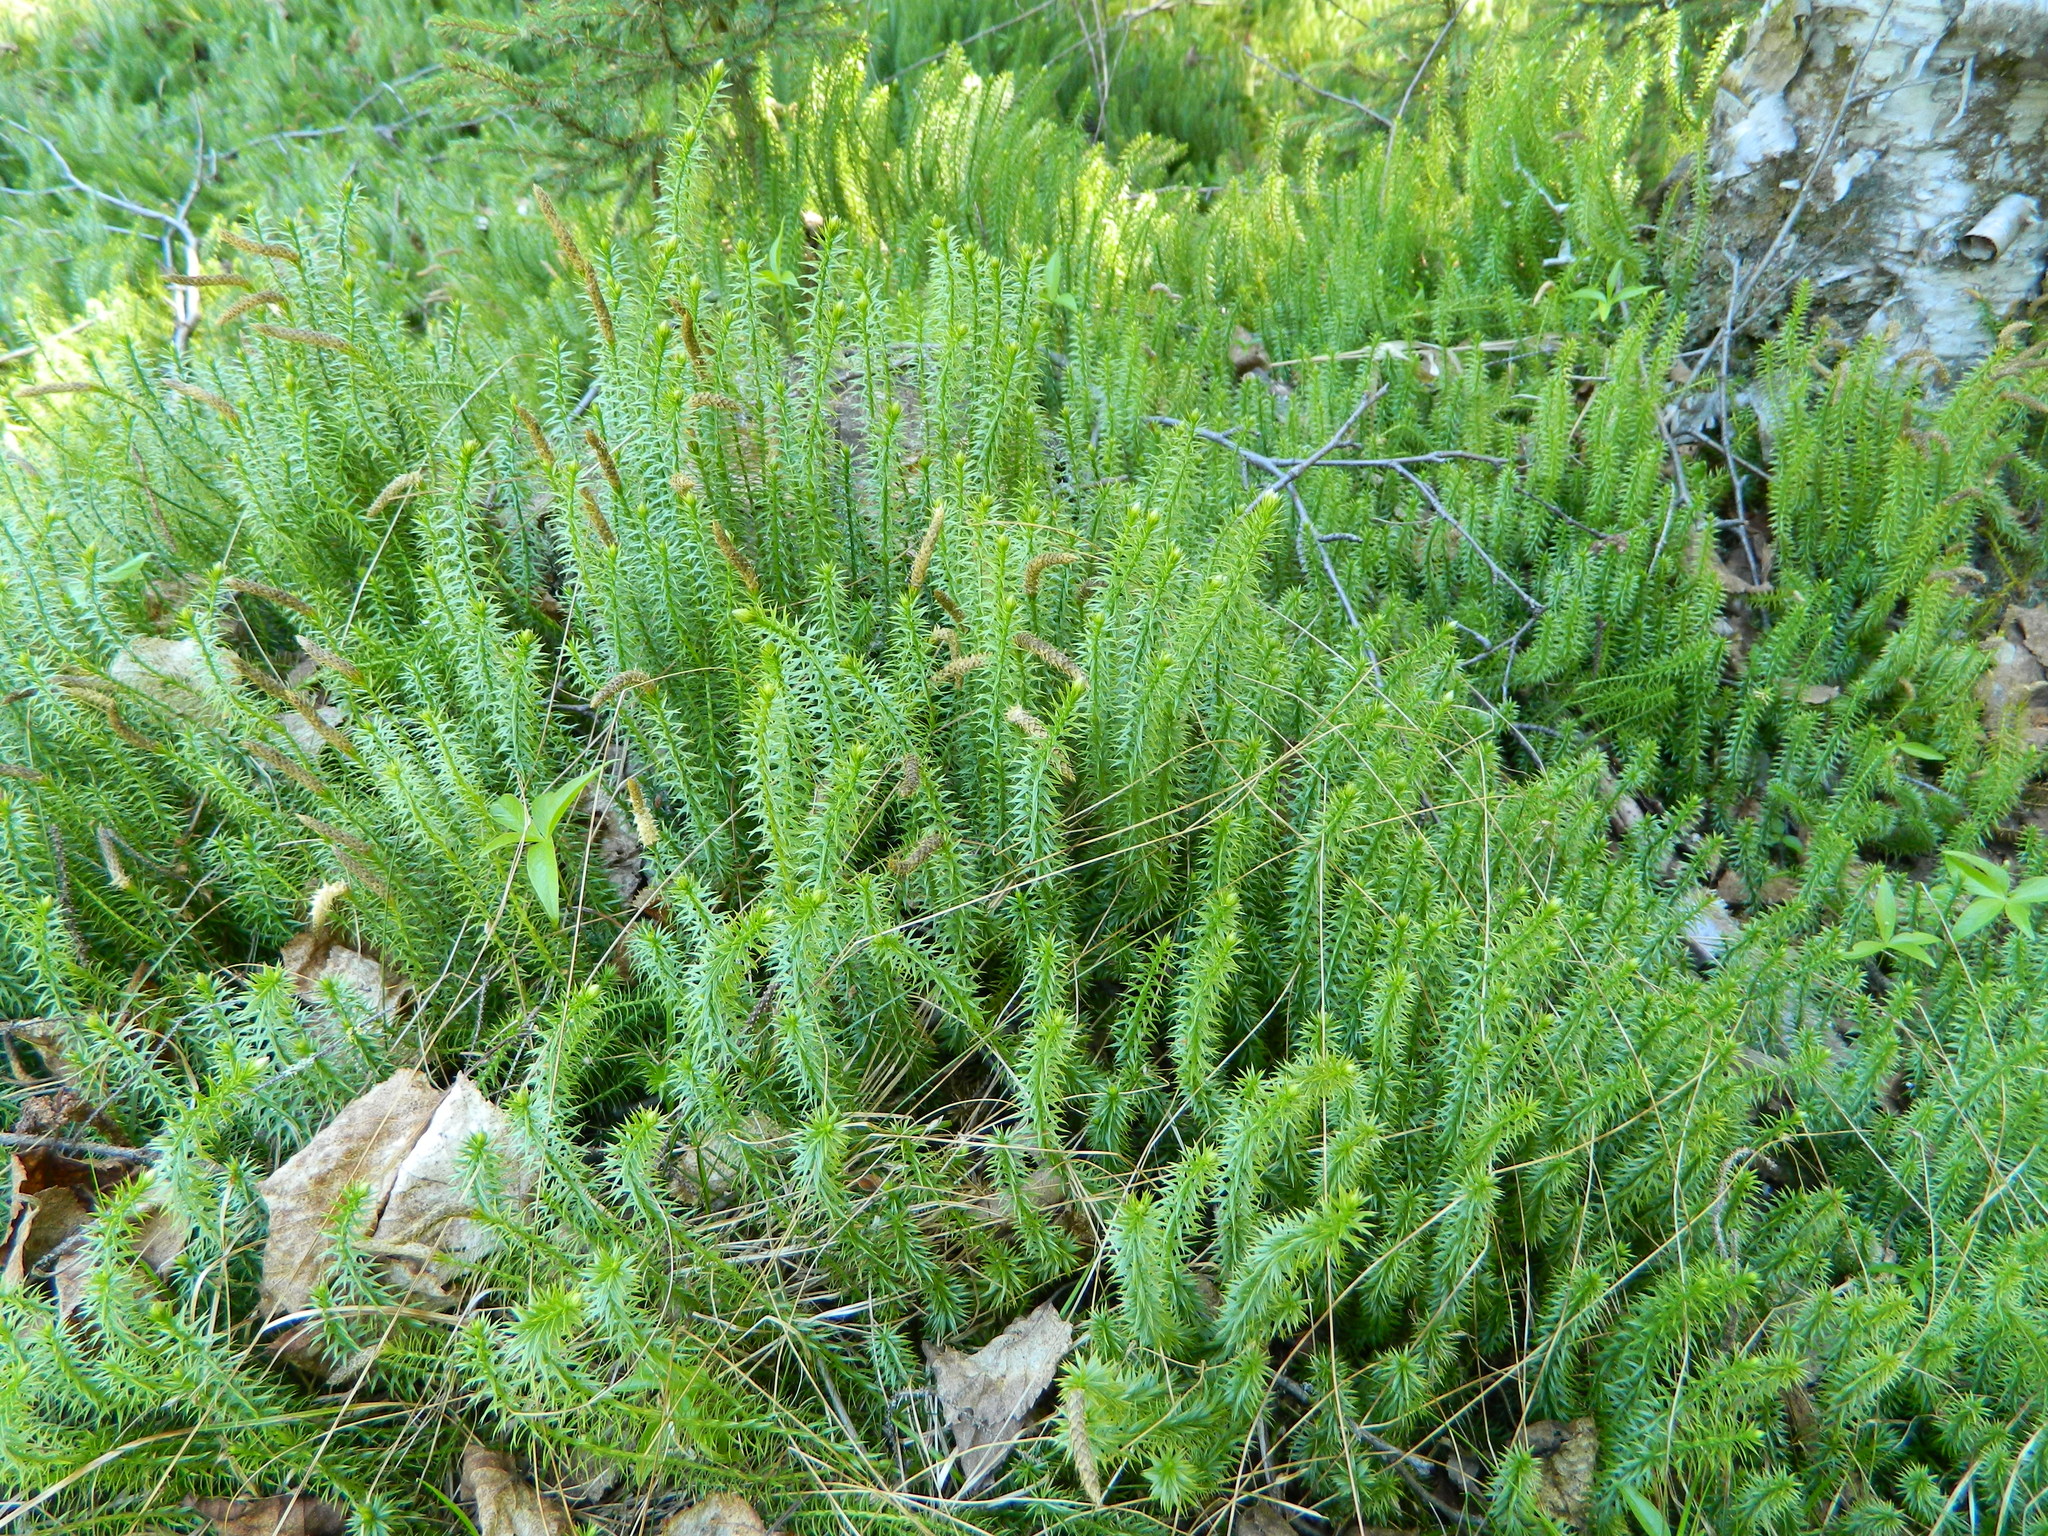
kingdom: Plantae
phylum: Tracheophyta
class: Lycopodiopsida
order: Lycopodiales
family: Lycopodiaceae
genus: Spinulum
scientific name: Spinulum annotinum
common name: Interrupted club-moss
